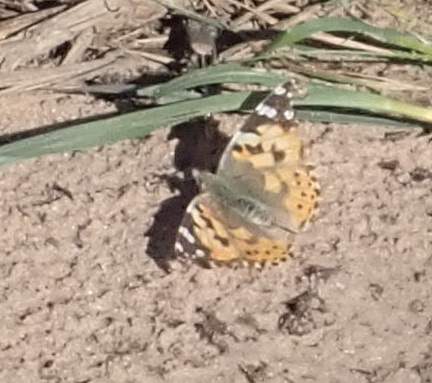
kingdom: Animalia
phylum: Arthropoda
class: Insecta
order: Lepidoptera
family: Nymphalidae
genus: Vanessa
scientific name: Vanessa cardui
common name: Painted lady
